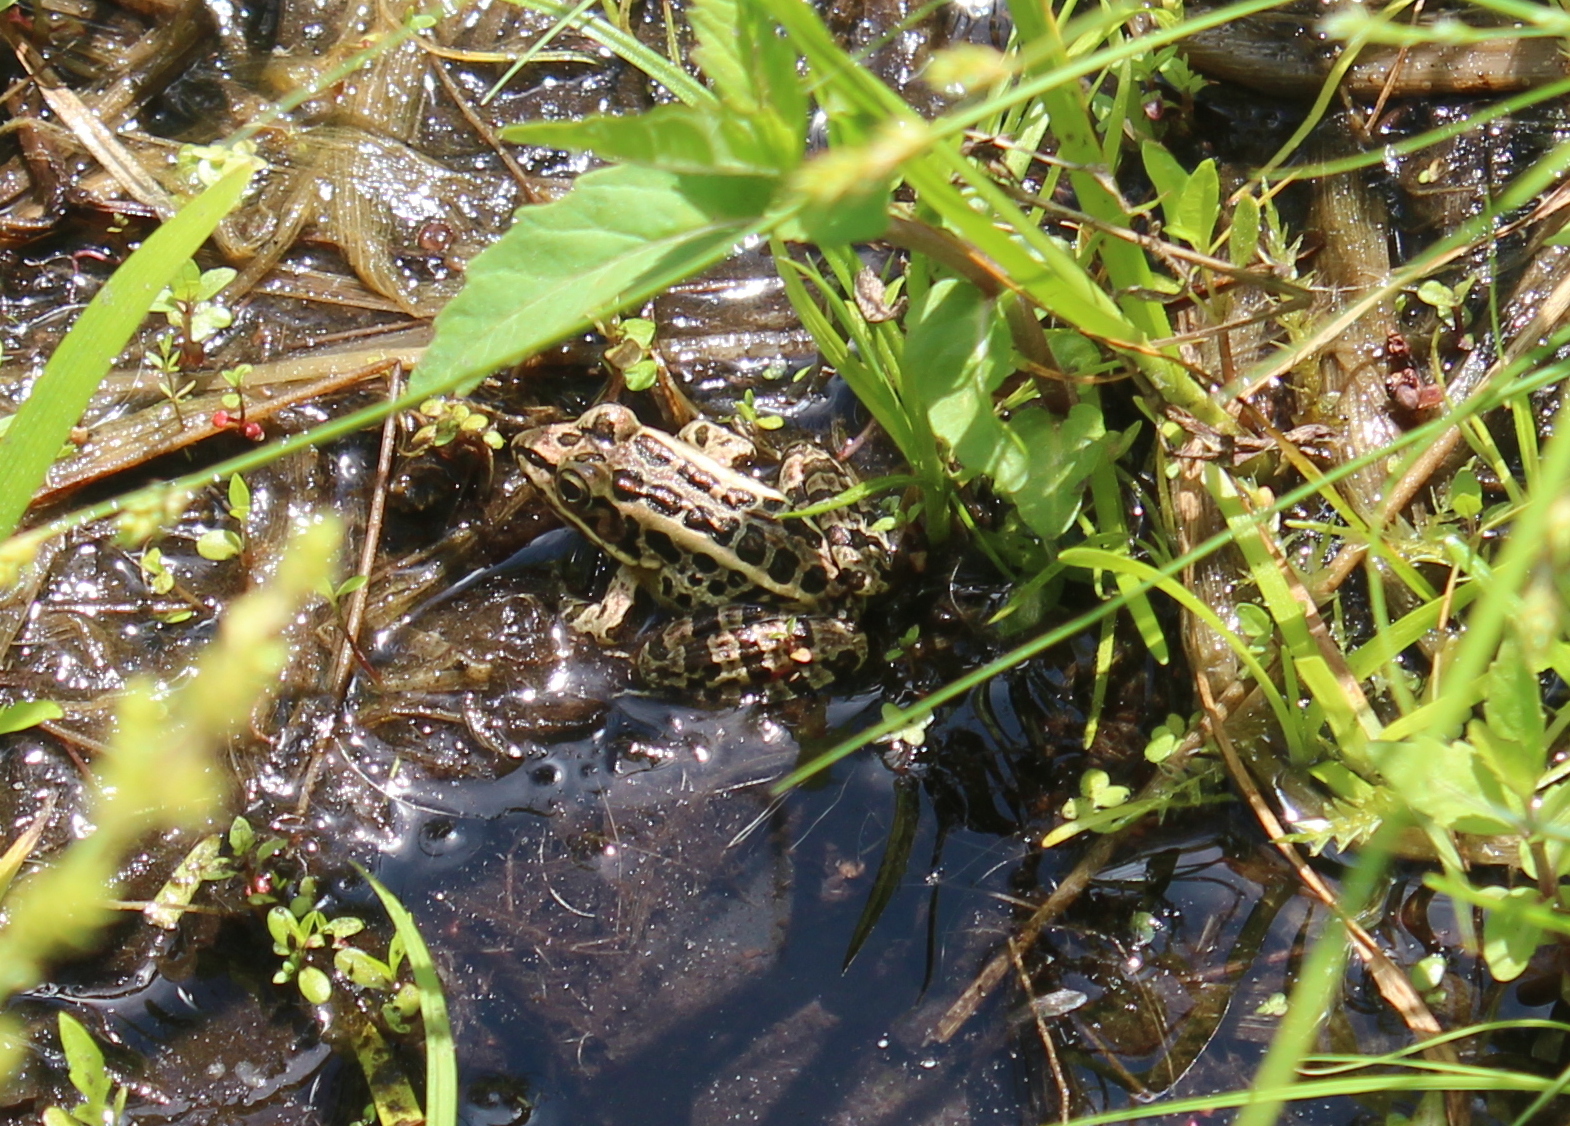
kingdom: Animalia
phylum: Chordata
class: Amphibia
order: Anura
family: Ranidae
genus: Lithobates
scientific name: Lithobates palustris
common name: Pickerel frog
